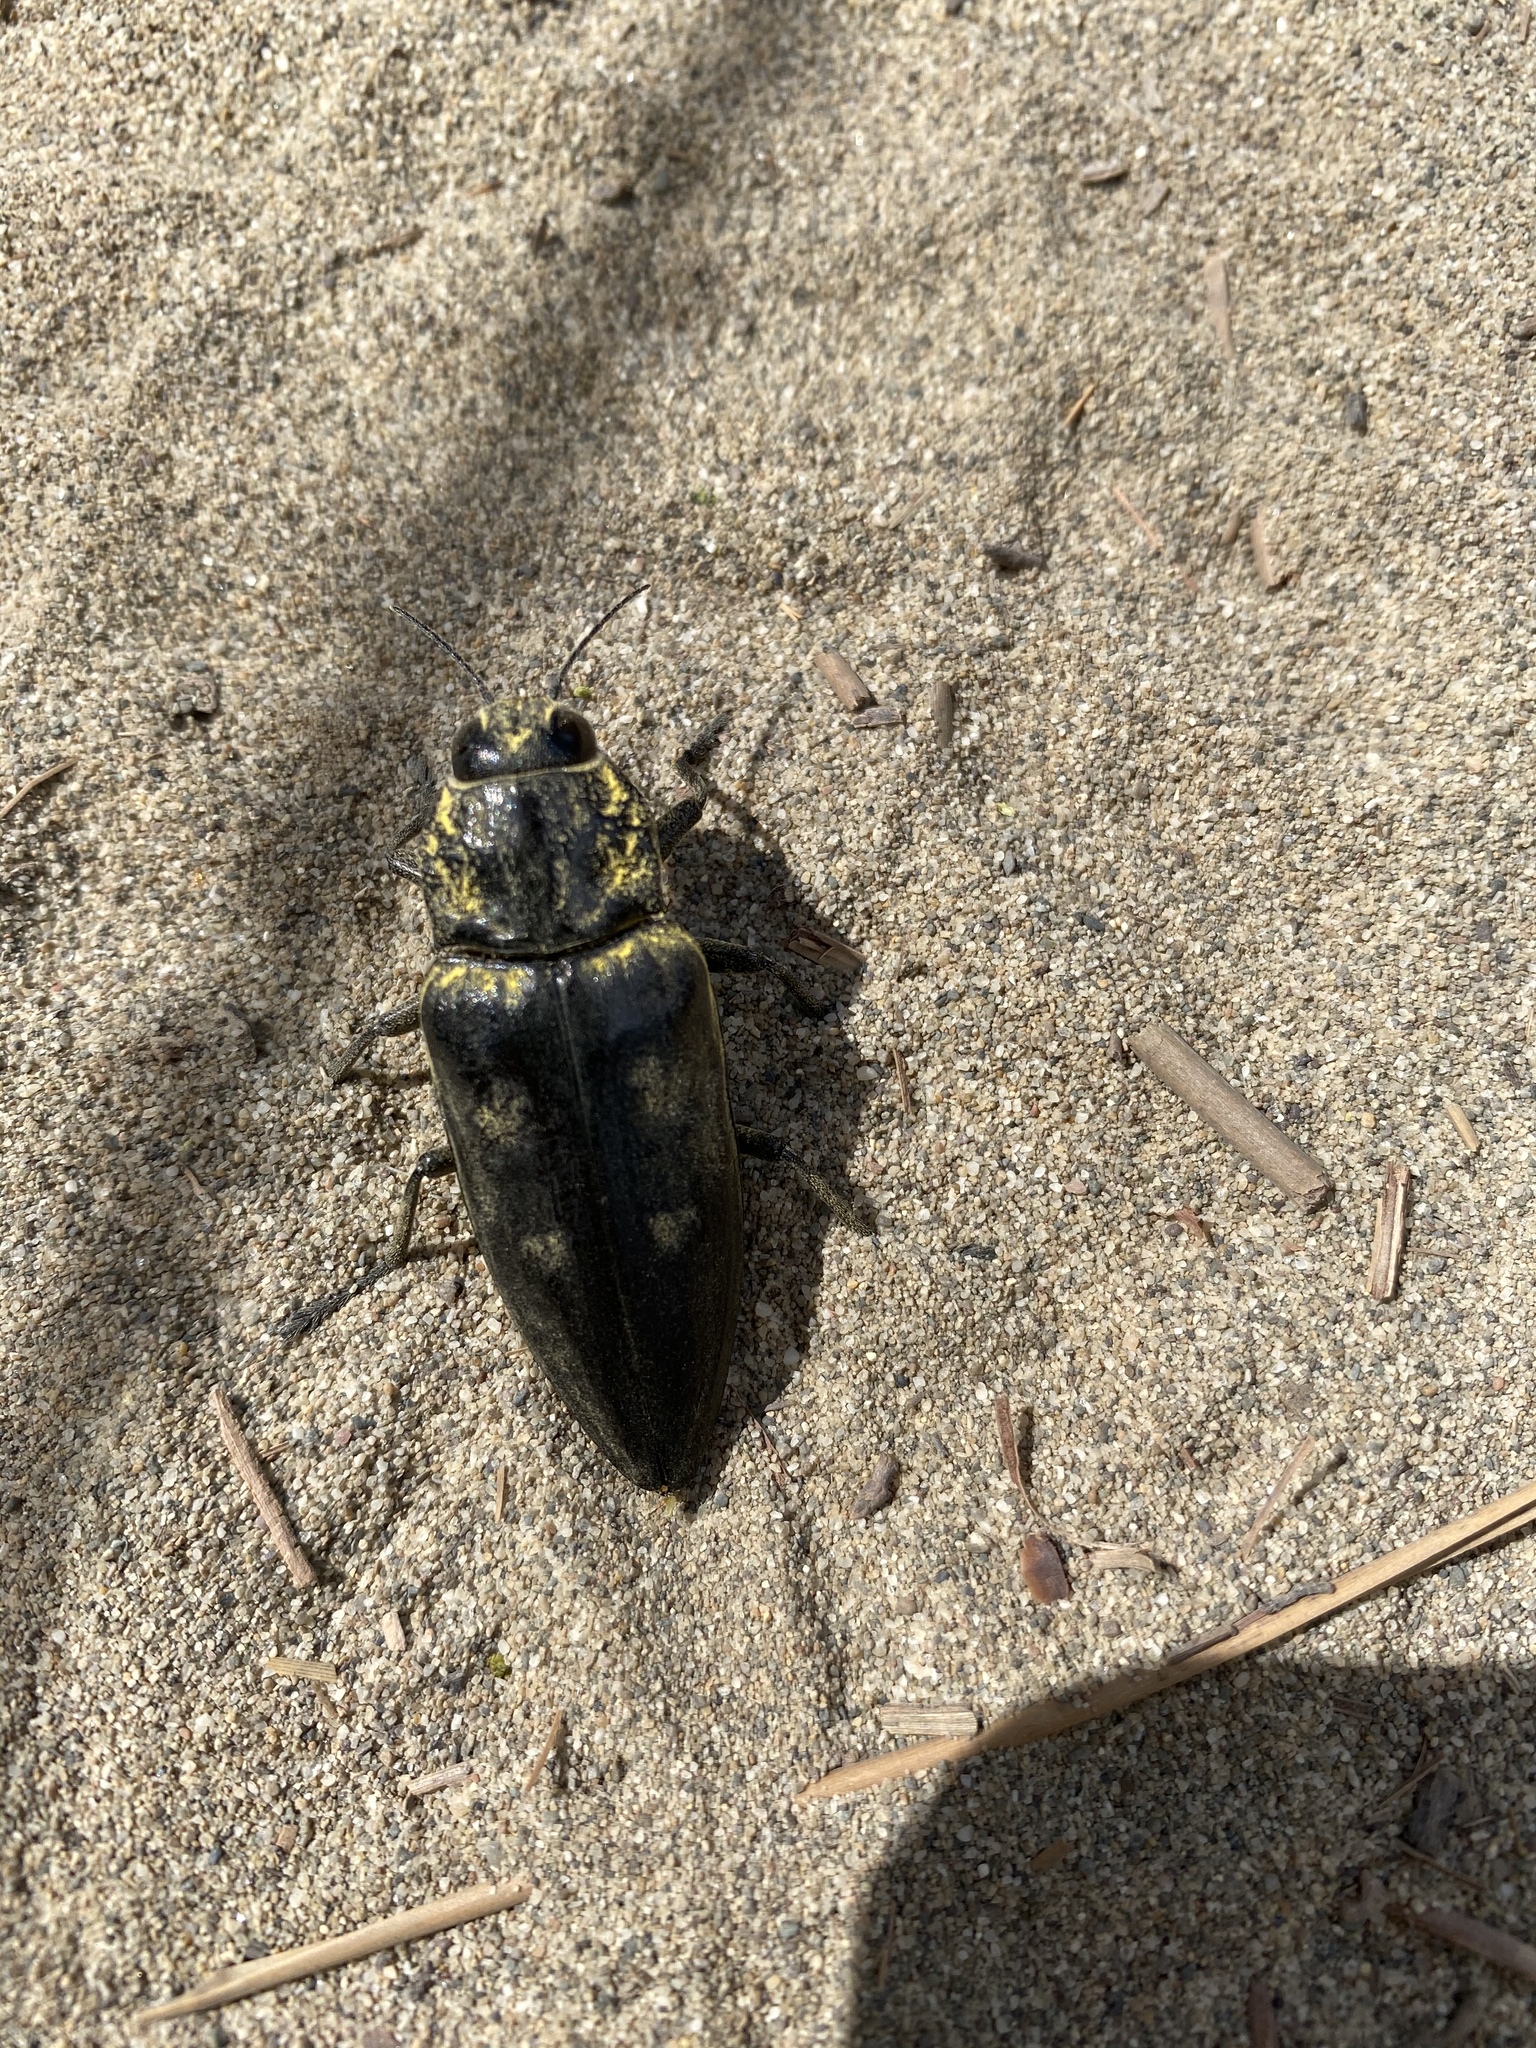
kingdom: Animalia
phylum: Arthropoda
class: Insecta
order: Coleoptera
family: Buprestidae
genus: Chalcophora
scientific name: Chalcophora detrita
